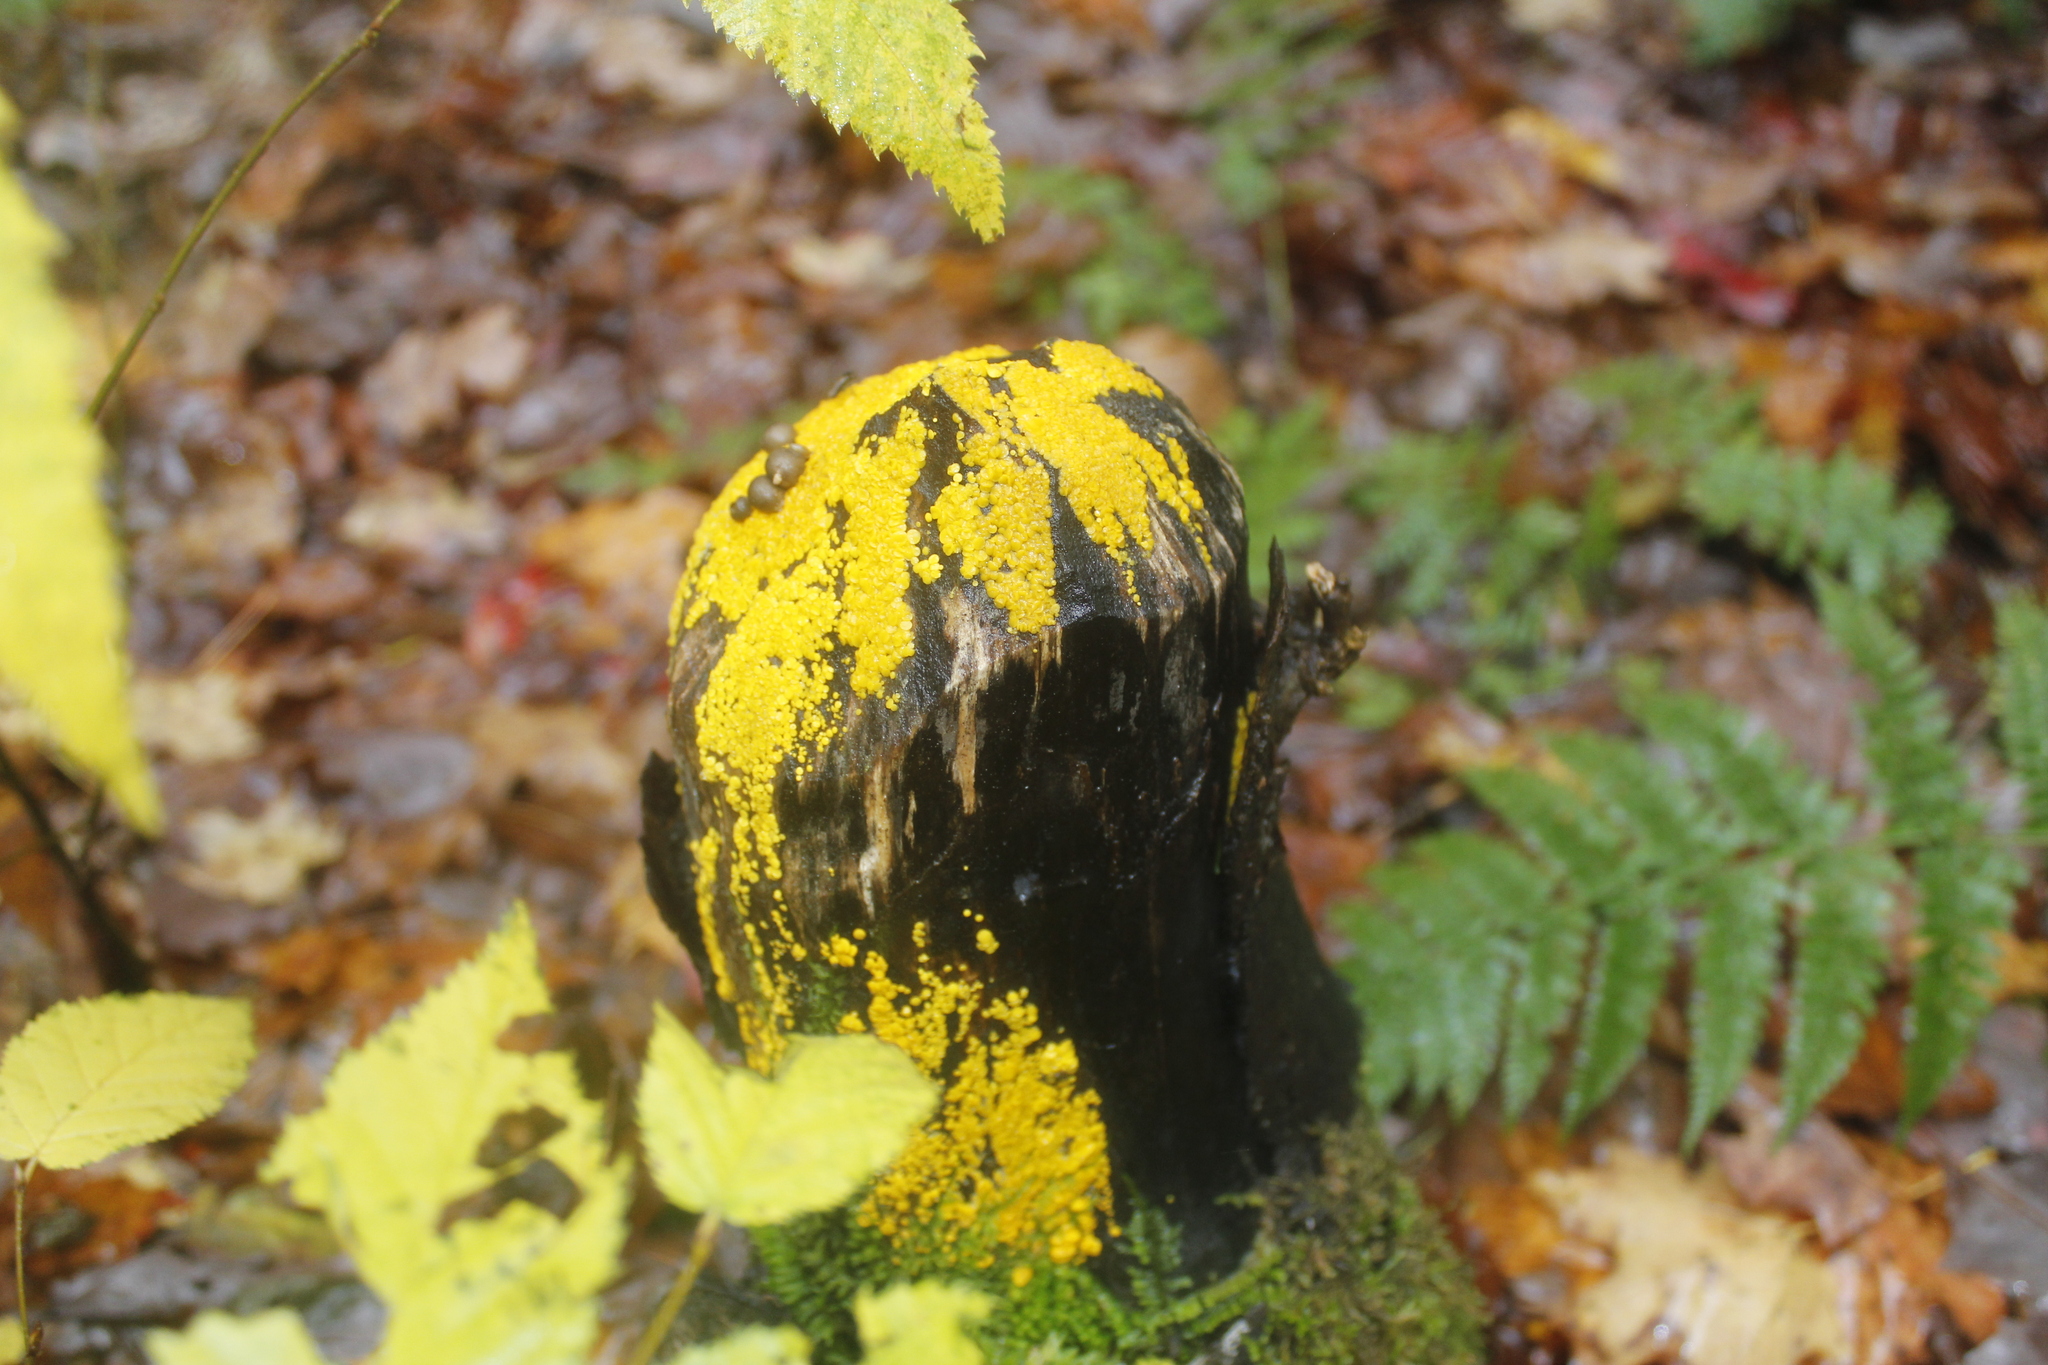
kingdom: Animalia
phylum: Chordata
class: Mammalia
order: Rodentia
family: Castoridae
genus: Castor
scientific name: Castor canadensis
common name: American beaver
